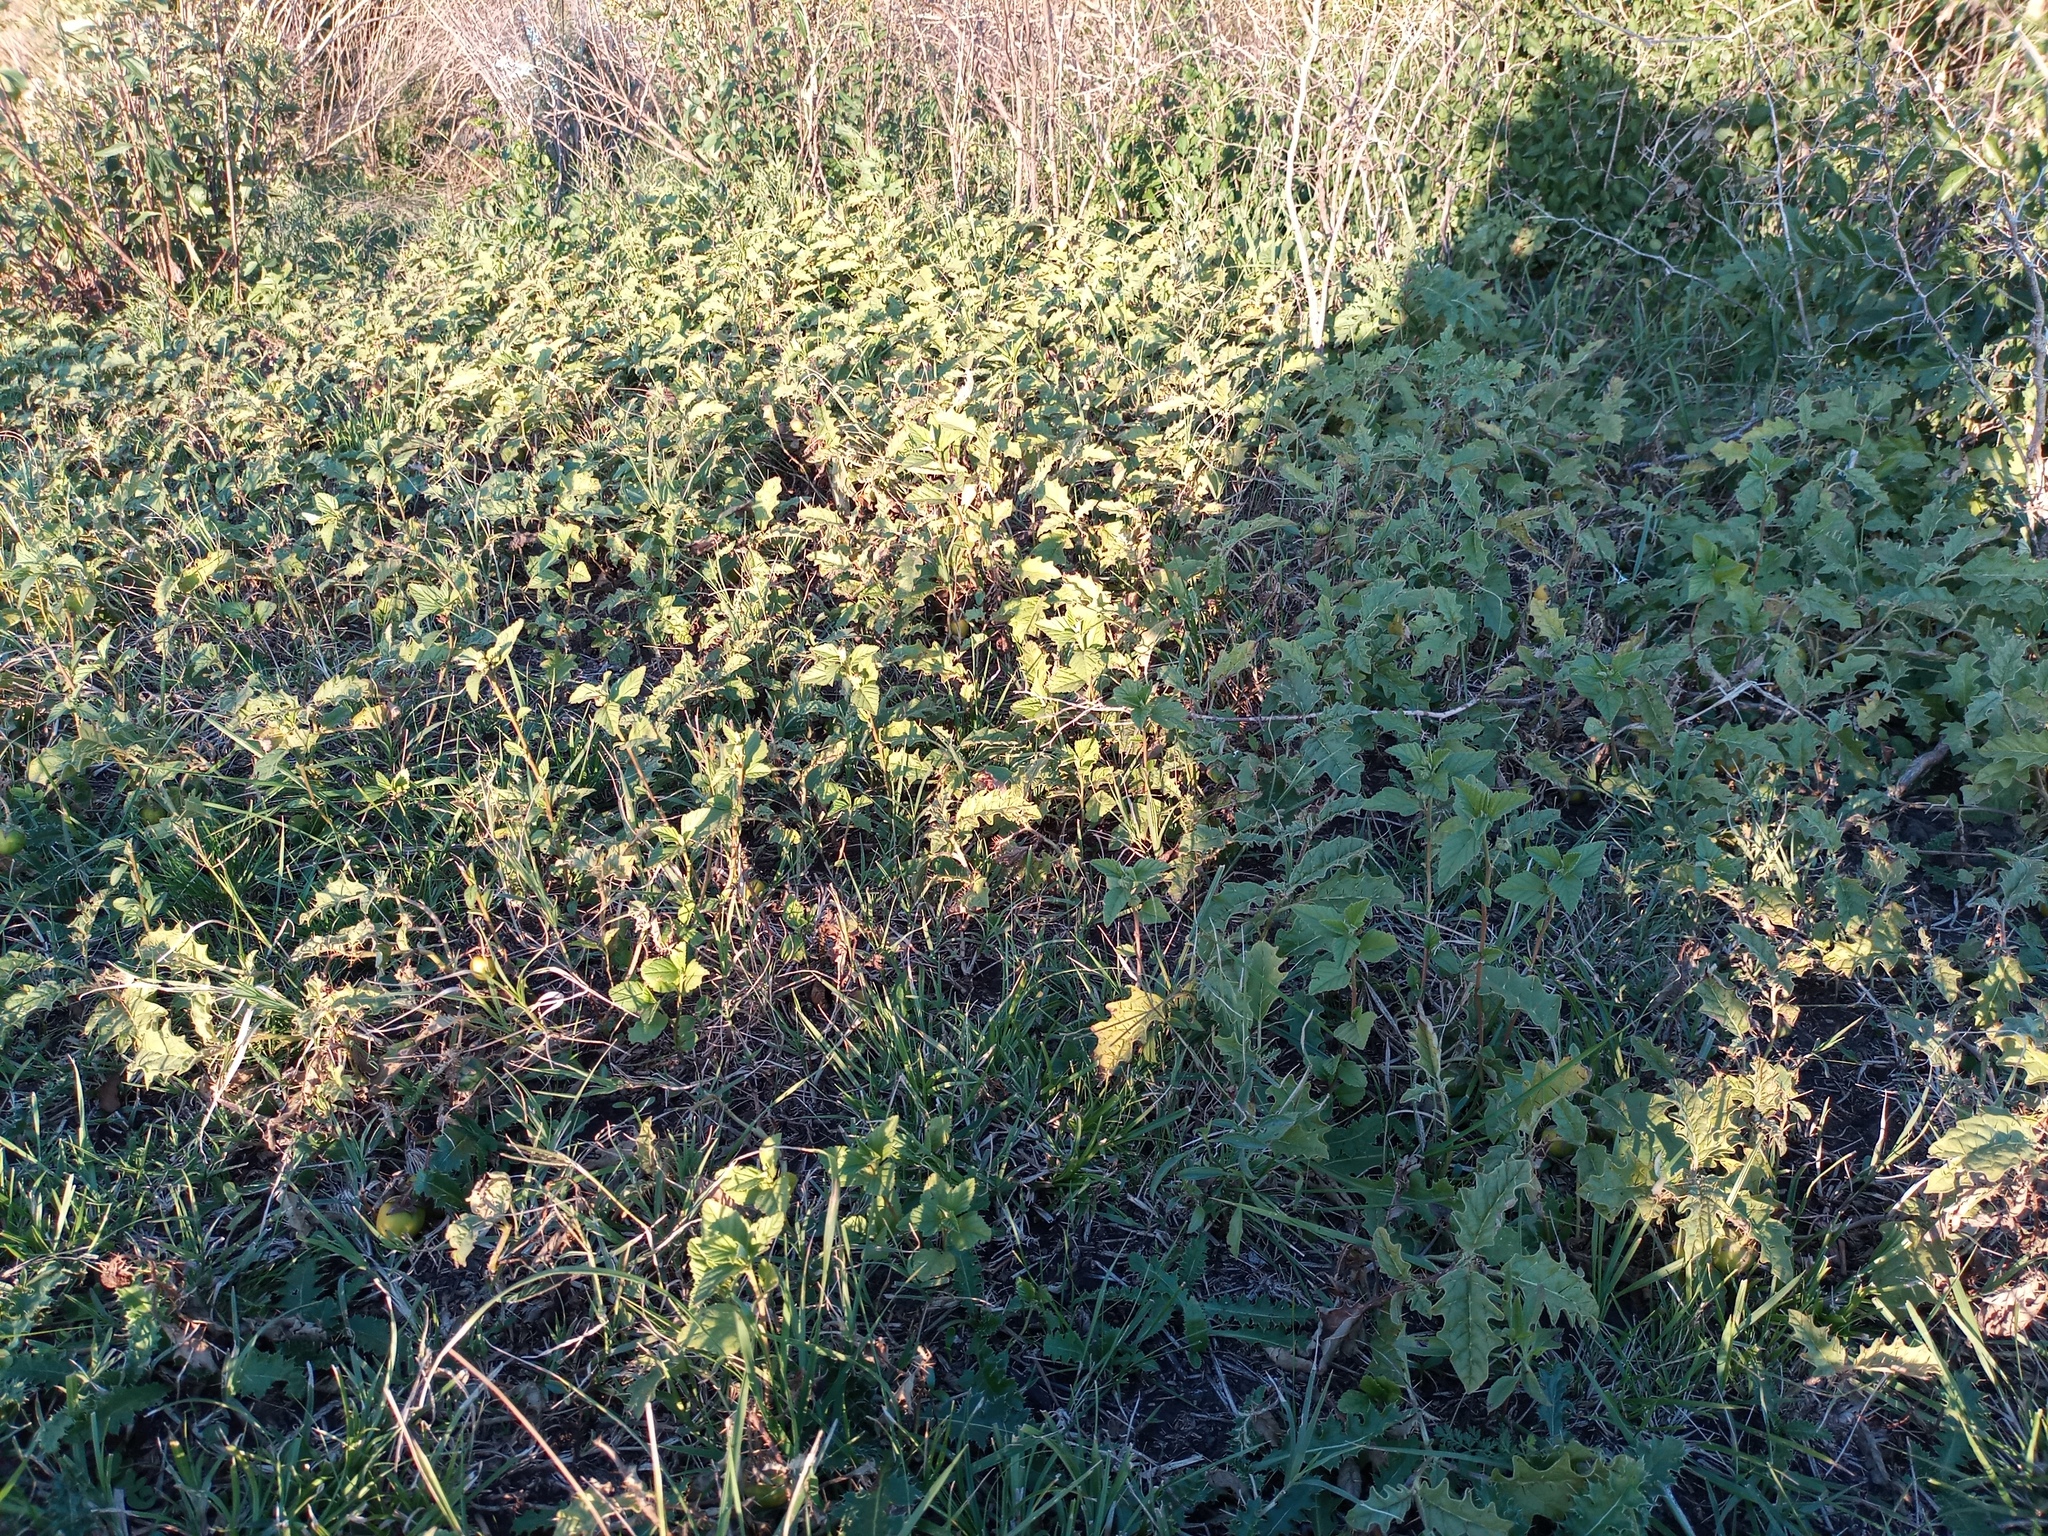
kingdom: Plantae
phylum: Tracheophyta
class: Magnoliopsida
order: Solanales
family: Solanaceae
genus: Solanum
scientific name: Solanum juvenale
